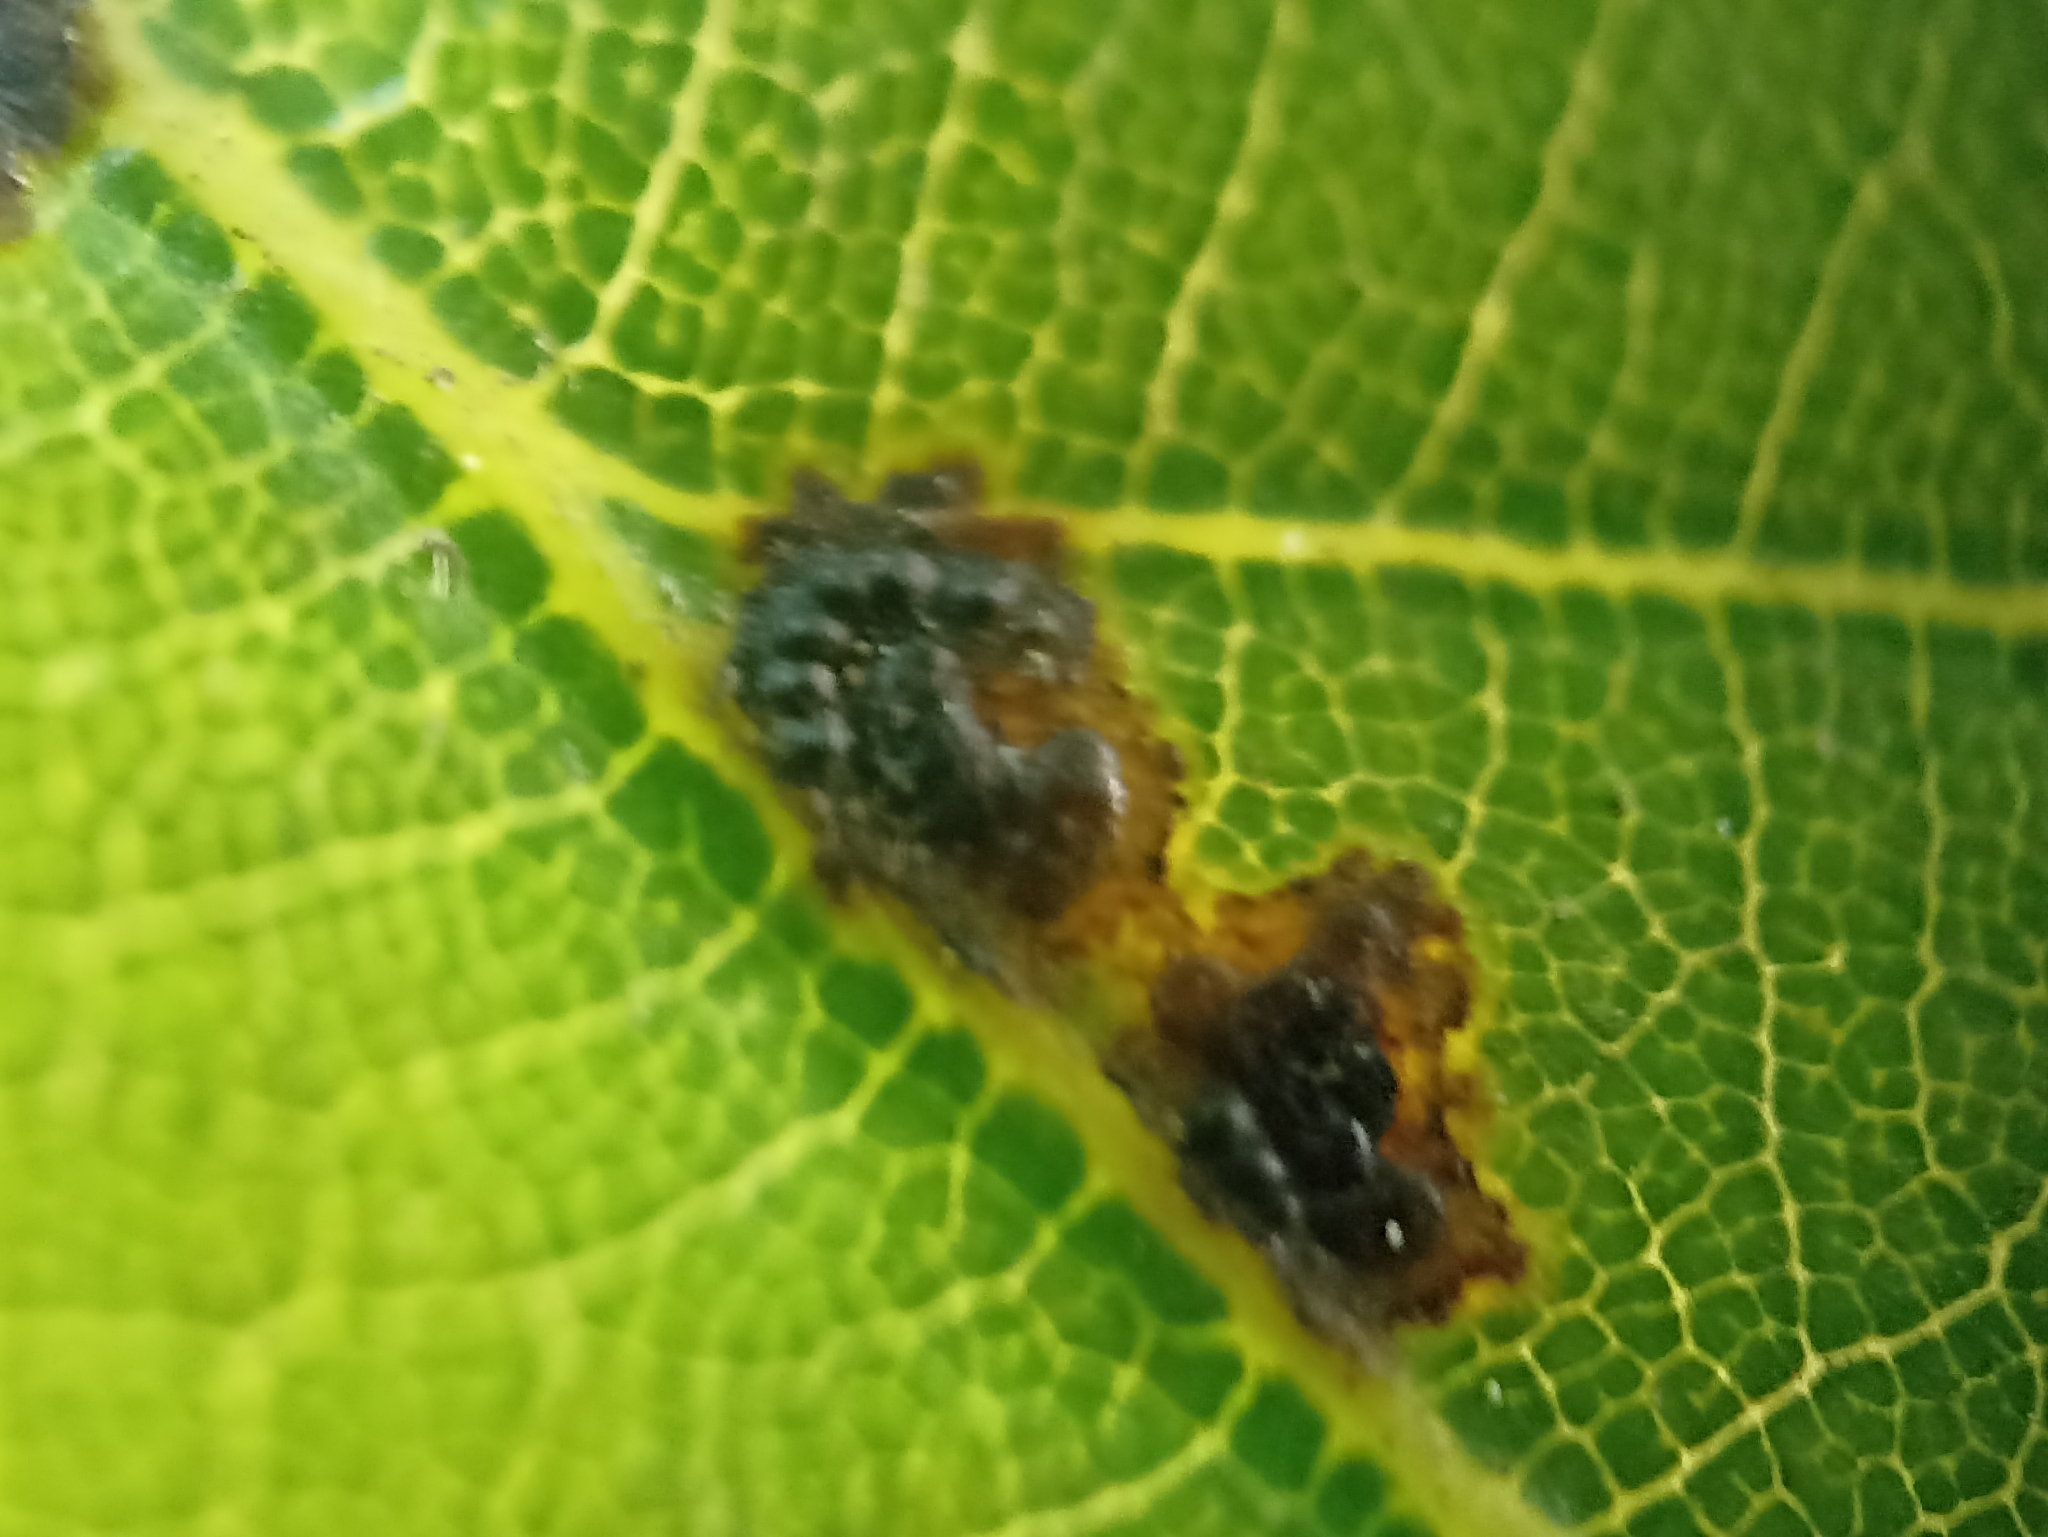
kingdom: Fungi
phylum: Ascomycota
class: Sordariomycetes
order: Phyllachorales
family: Phyllachoraceae
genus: Trabutia
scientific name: Trabutia quercina
